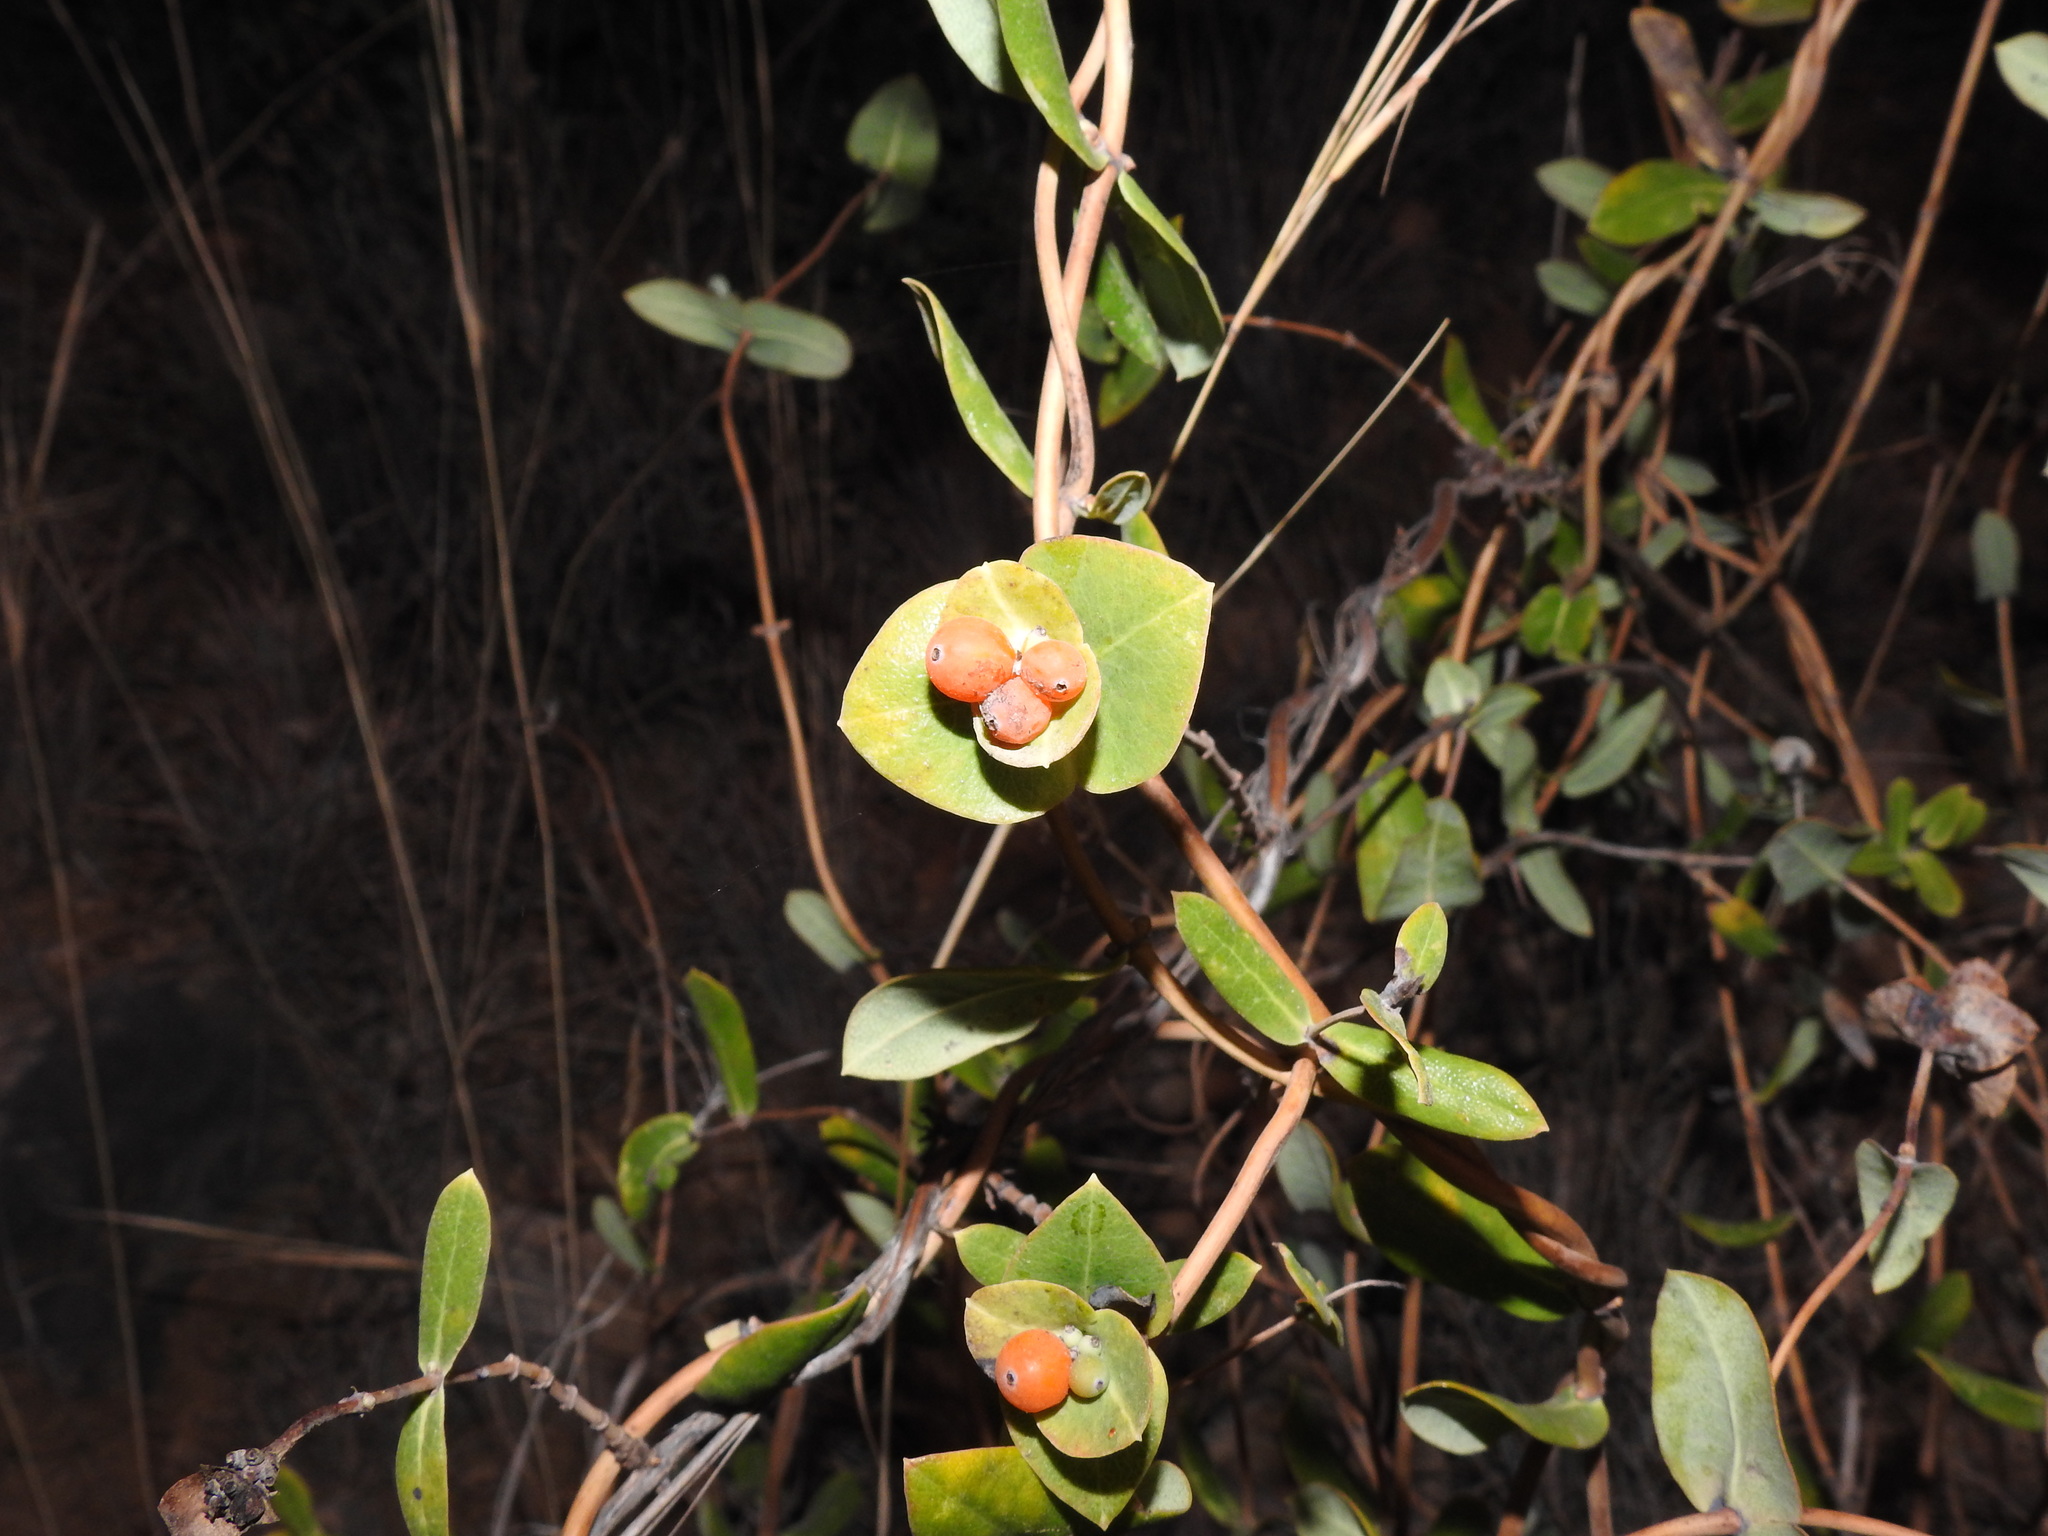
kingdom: Plantae
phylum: Tracheophyta
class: Magnoliopsida
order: Dipsacales
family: Caprifoliaceae
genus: Lonicera
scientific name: Lonicera implexa
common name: Minorca honeysuckle
